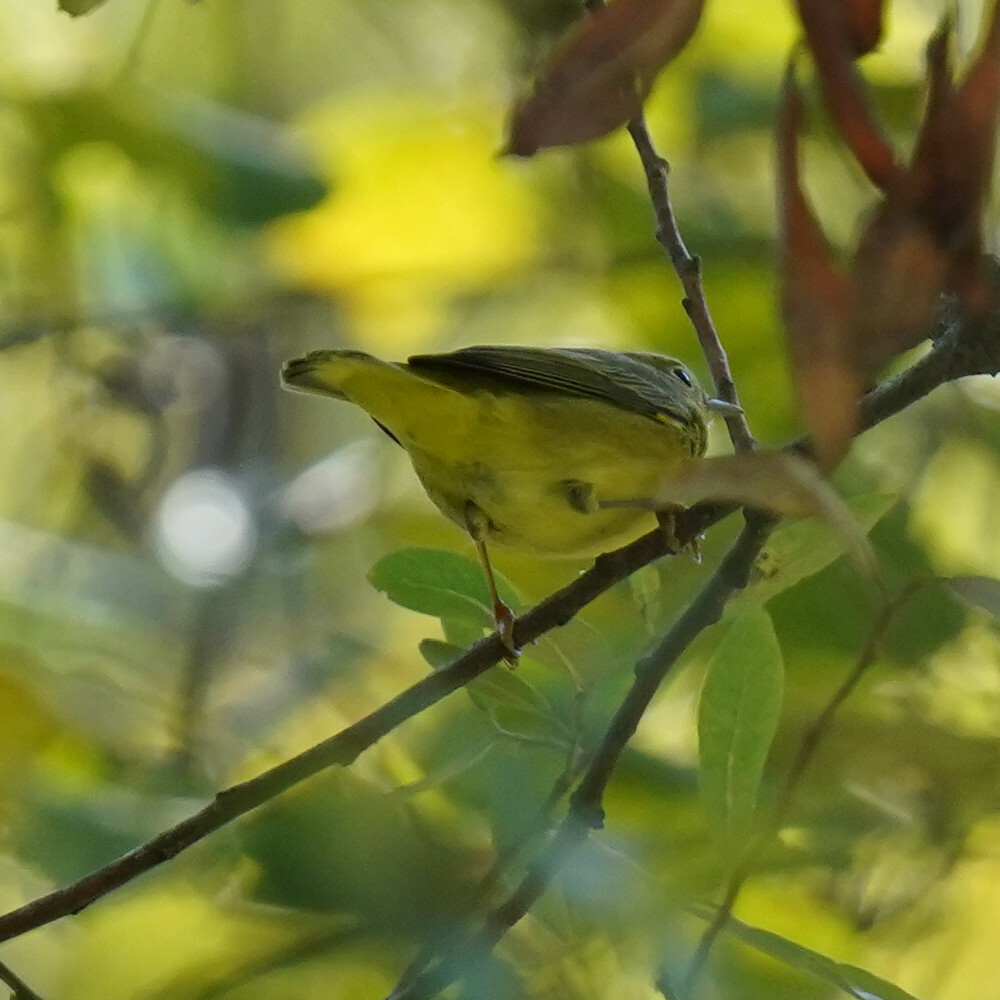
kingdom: Animalia
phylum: Chordata
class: Aves
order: Passeriformes
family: Parulidae
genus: Setophaga
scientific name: Setophaga petechia
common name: Yellow warbler
